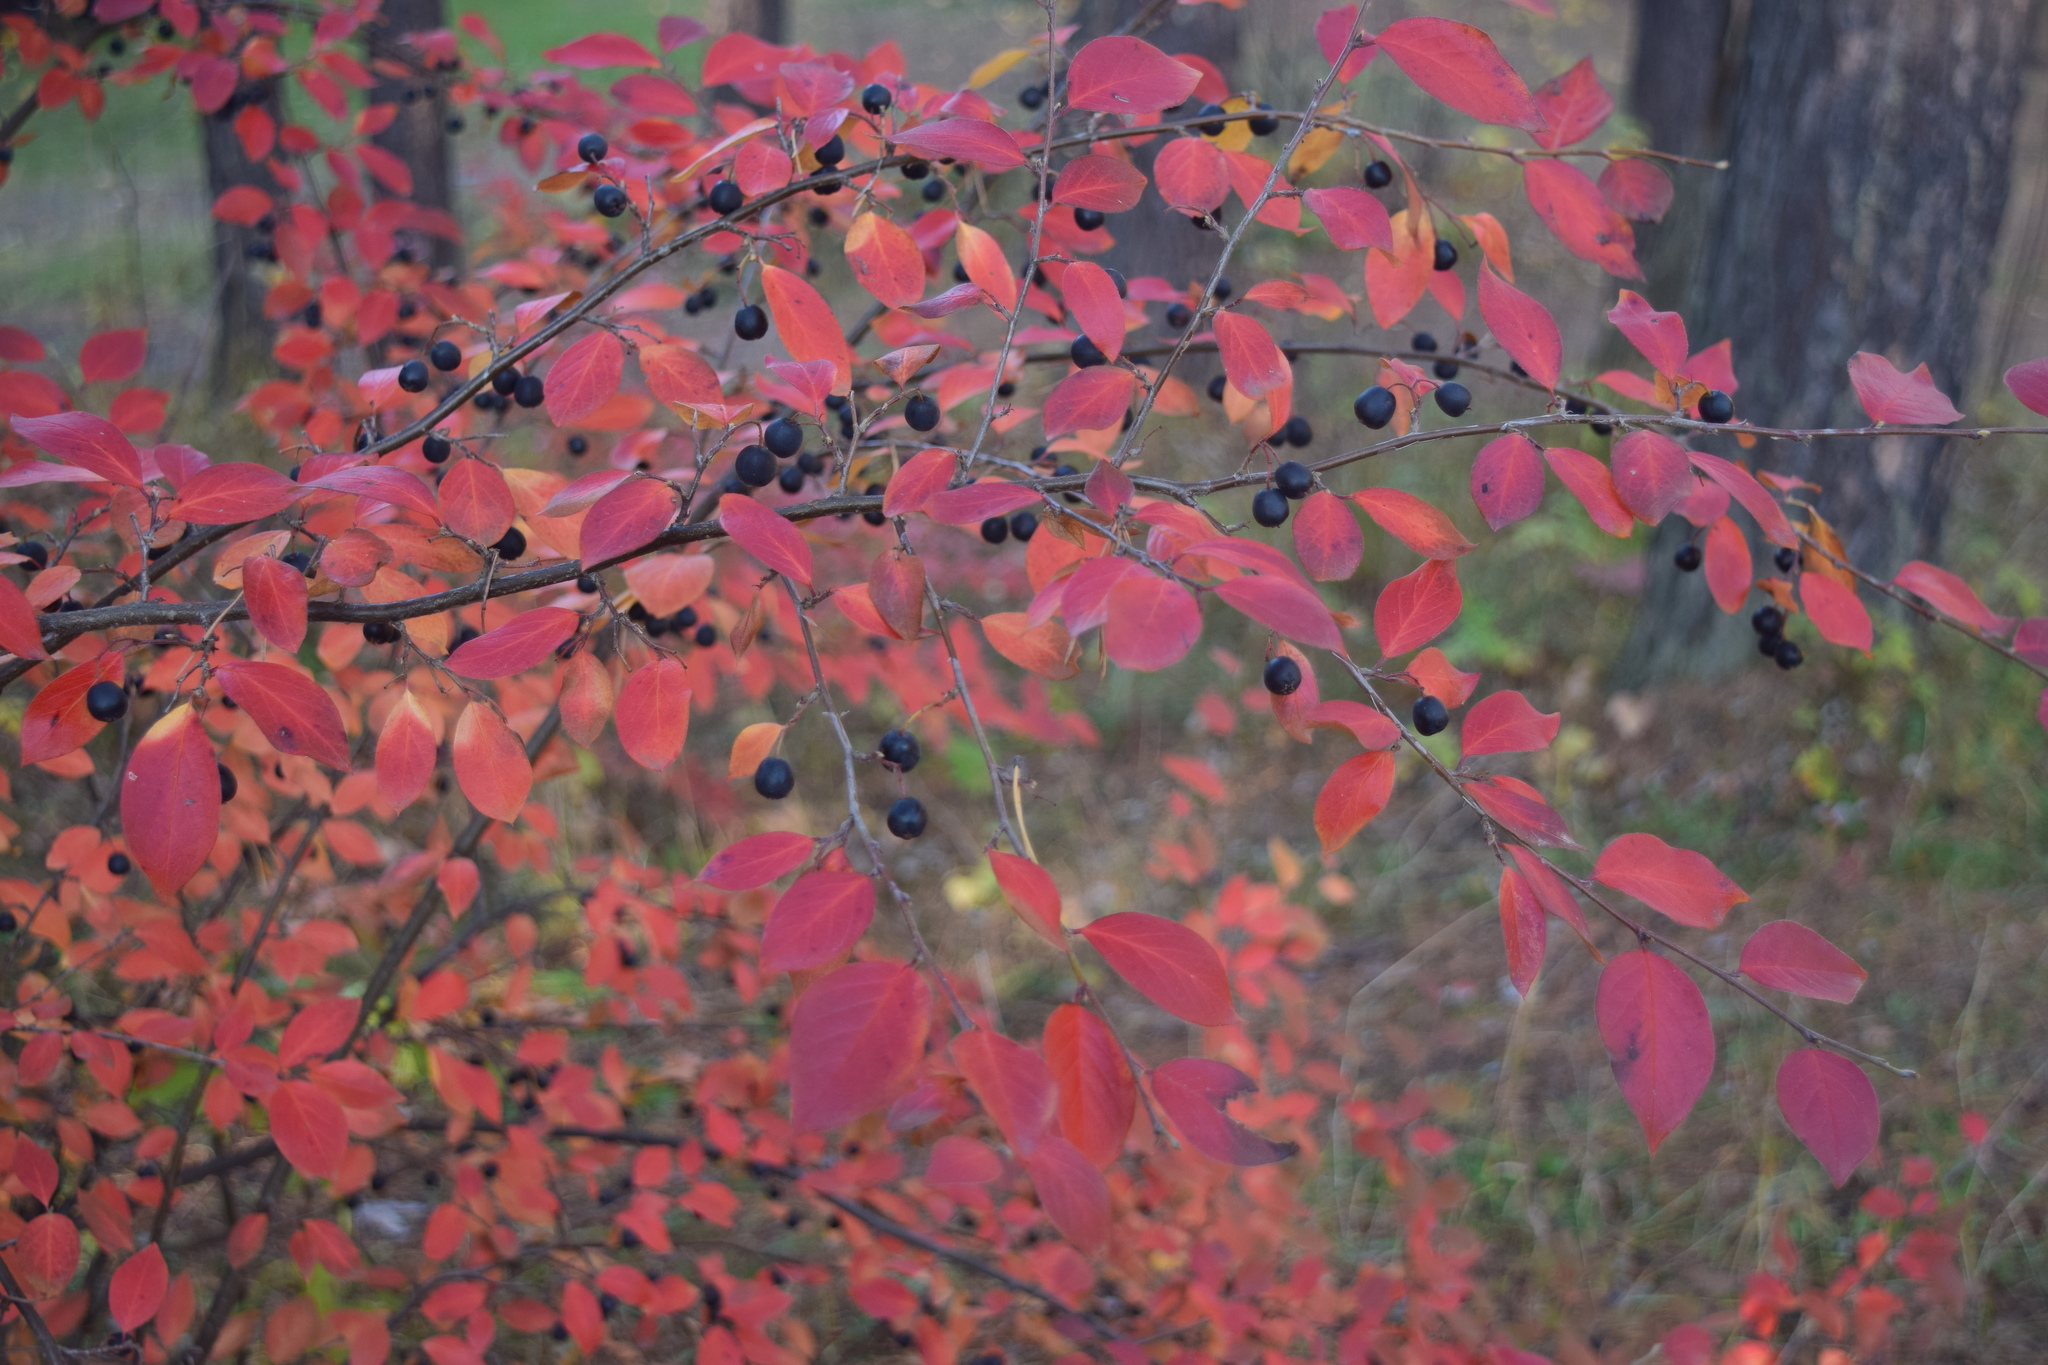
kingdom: Plantae
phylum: Tracheophyta
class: Magnoliopsida
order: Rosales
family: Rosaceae
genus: Cotoneaster
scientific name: Cotoneaster acutifolius
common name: Peking cotoneaster
